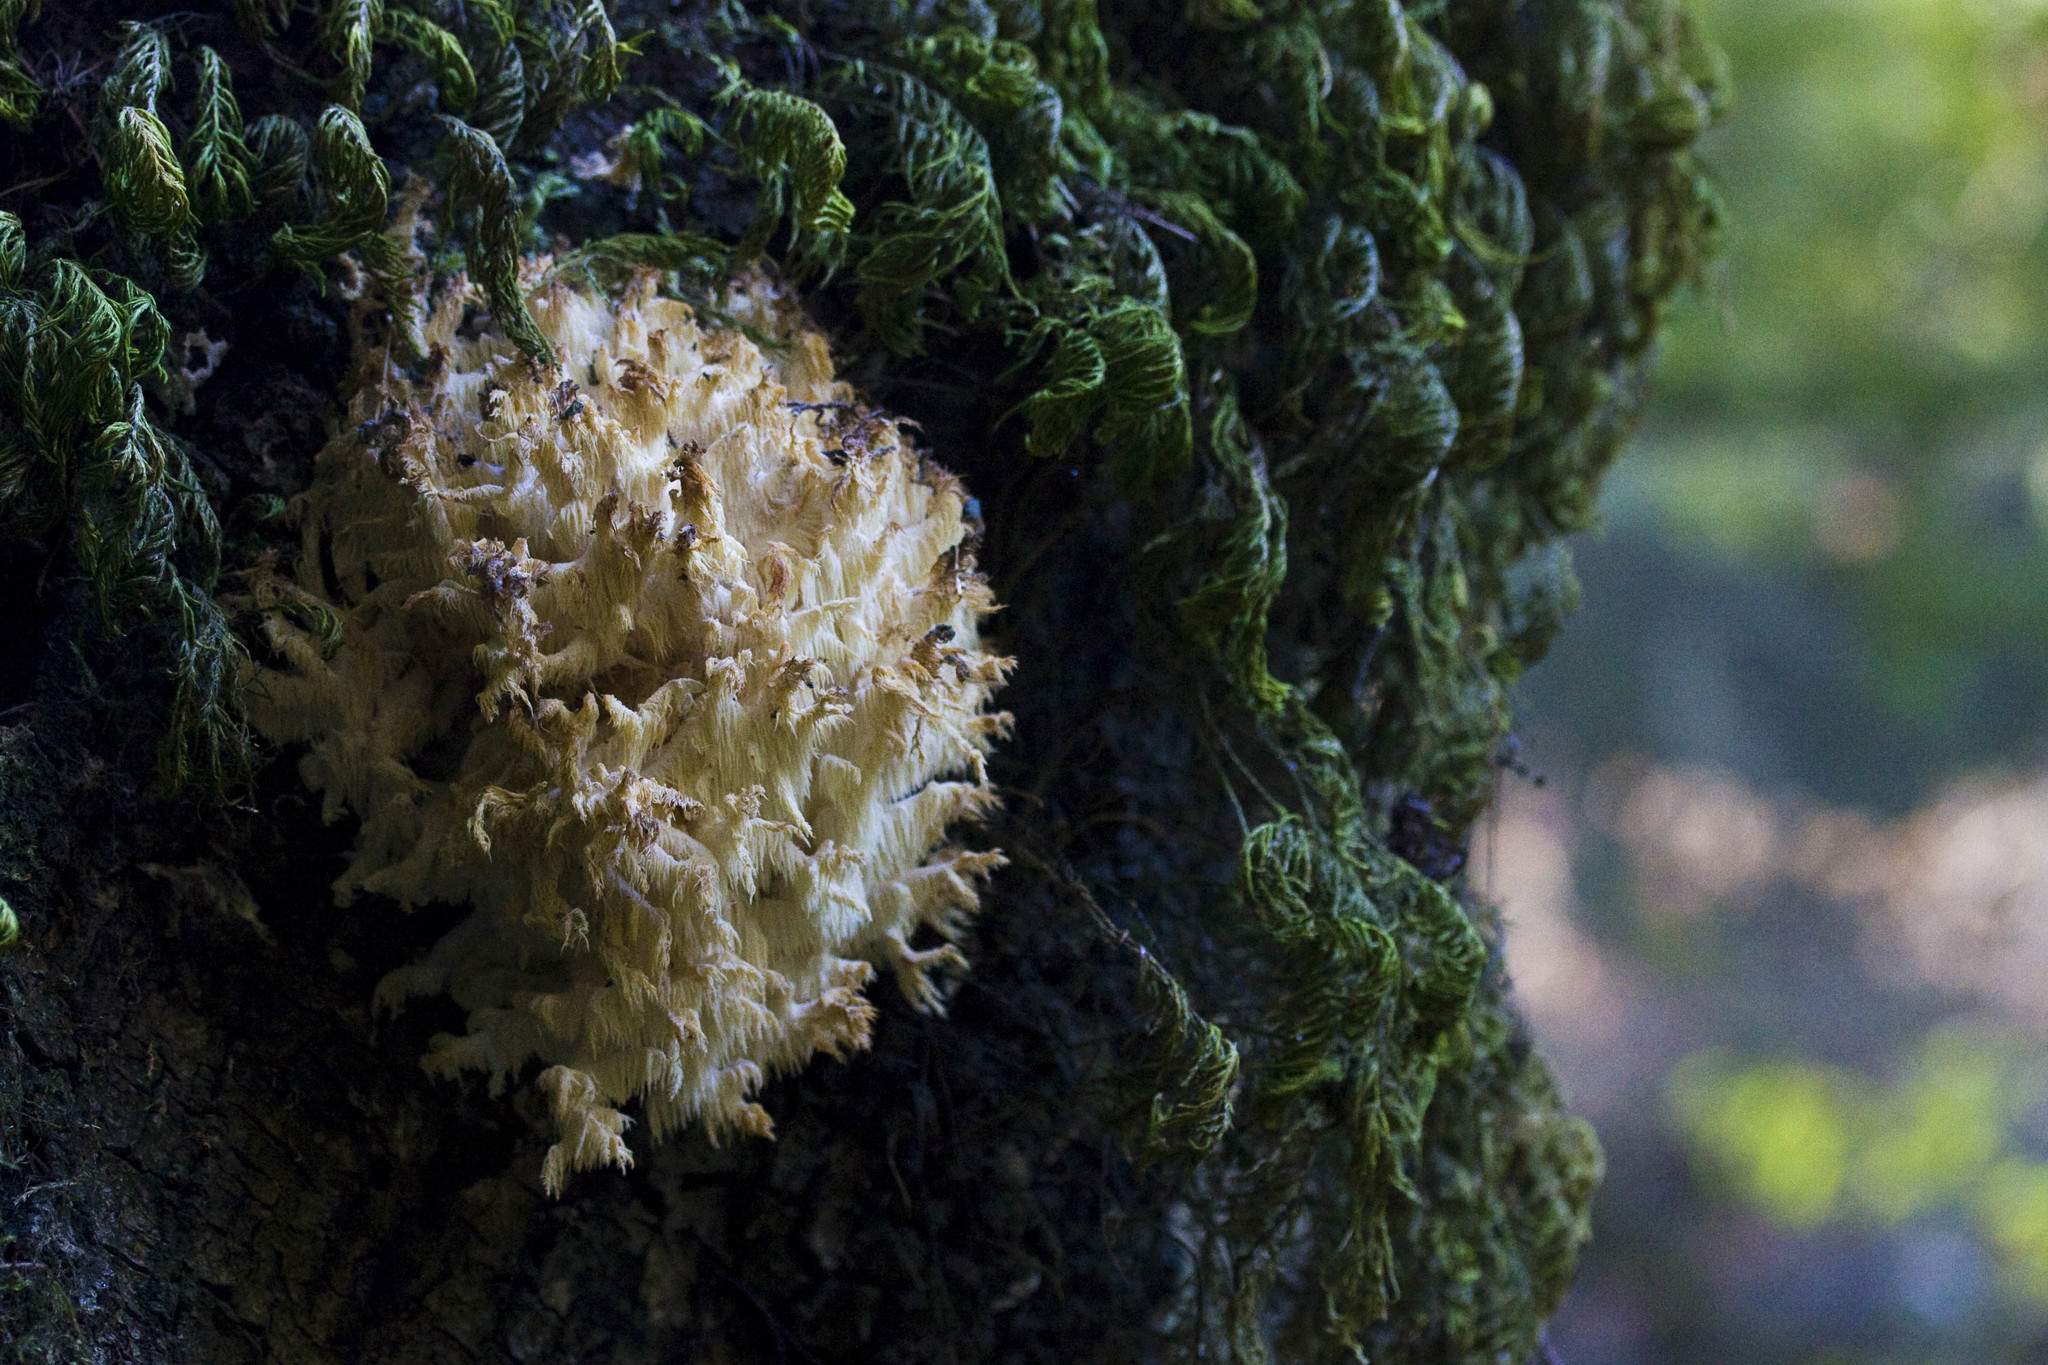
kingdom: Fungi
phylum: Basidiomycota
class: Agaricomycetes
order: Russulales
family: Hericiaceae
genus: Hericium
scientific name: Hericium coralloides
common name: Coral tooth
